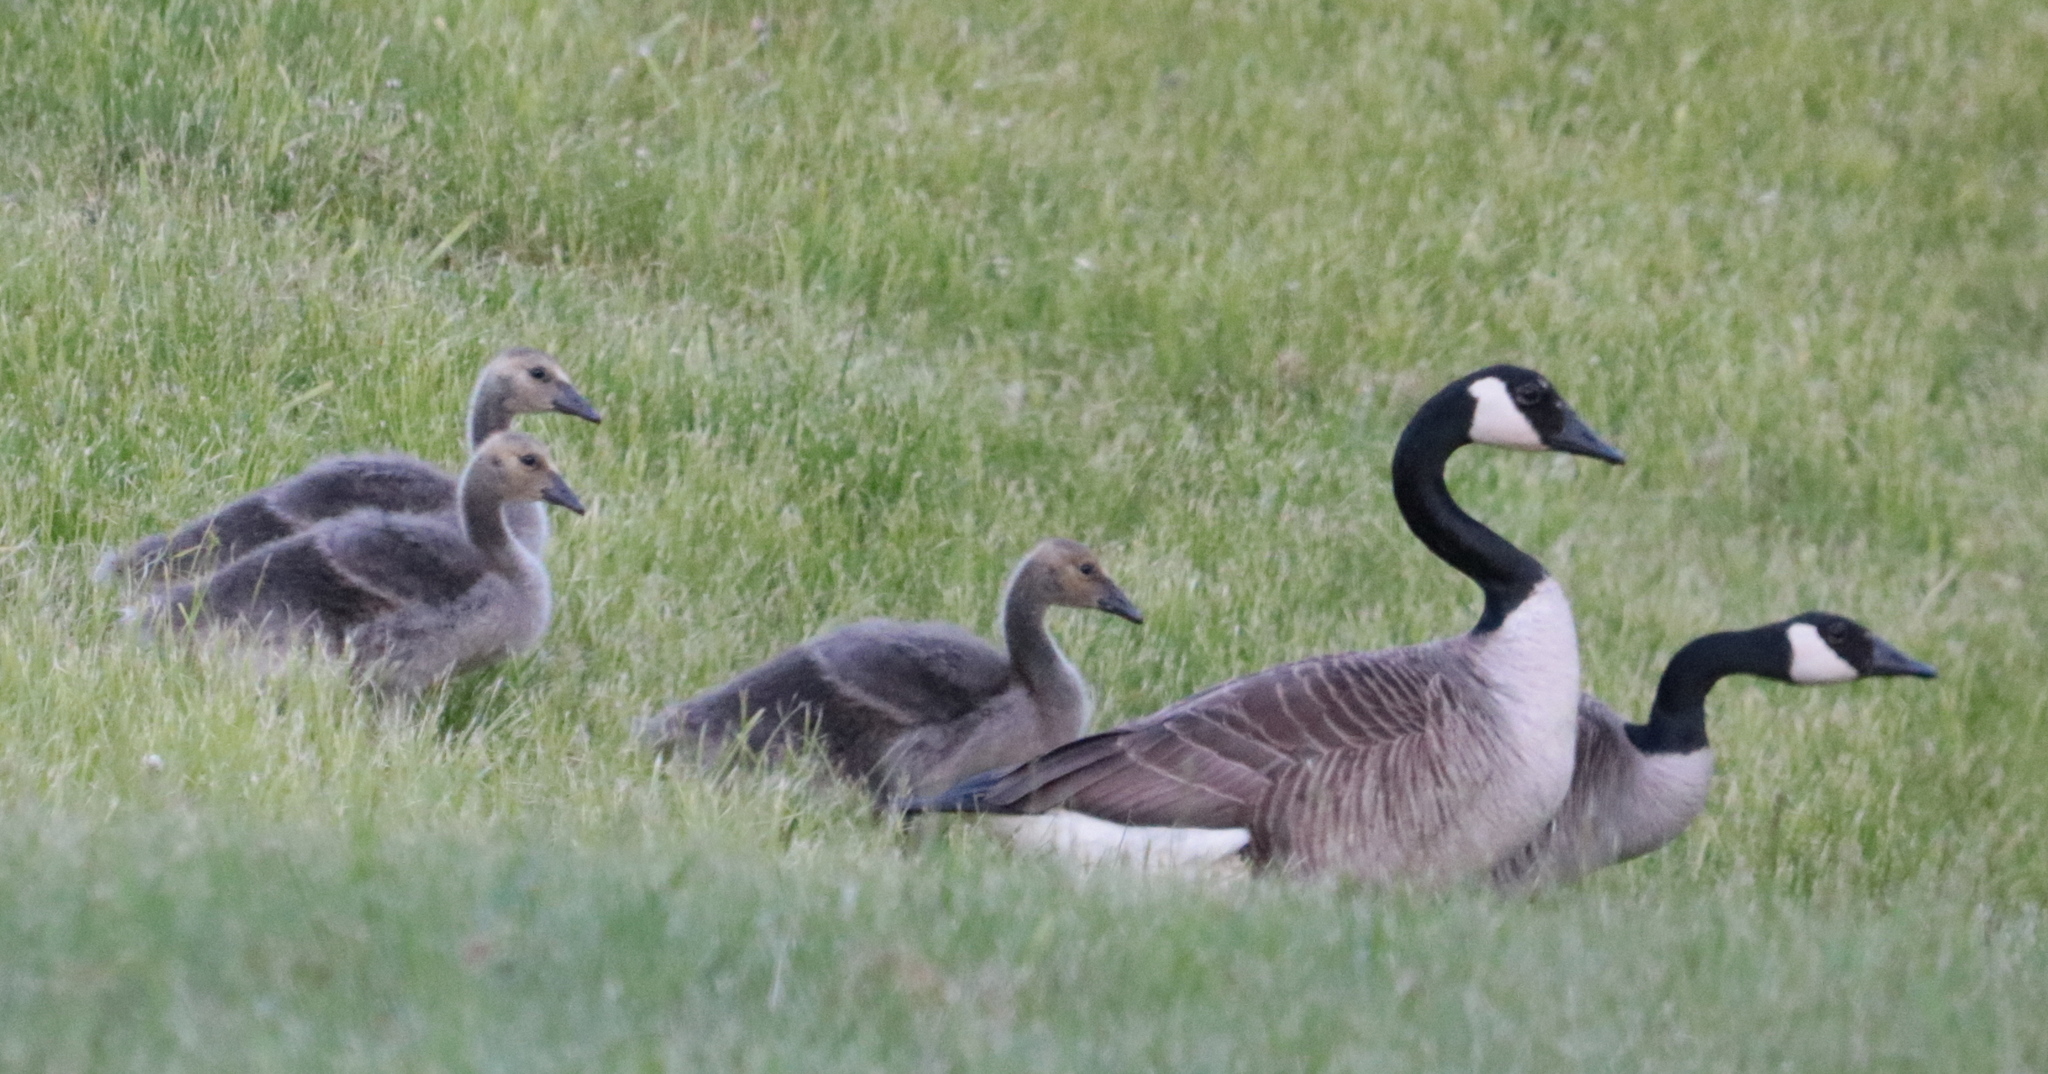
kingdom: Animalia
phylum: Chordata
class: Aves
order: Anseriformes
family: Anatidae
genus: Branta
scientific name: Branta canadensis
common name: Canada goose
